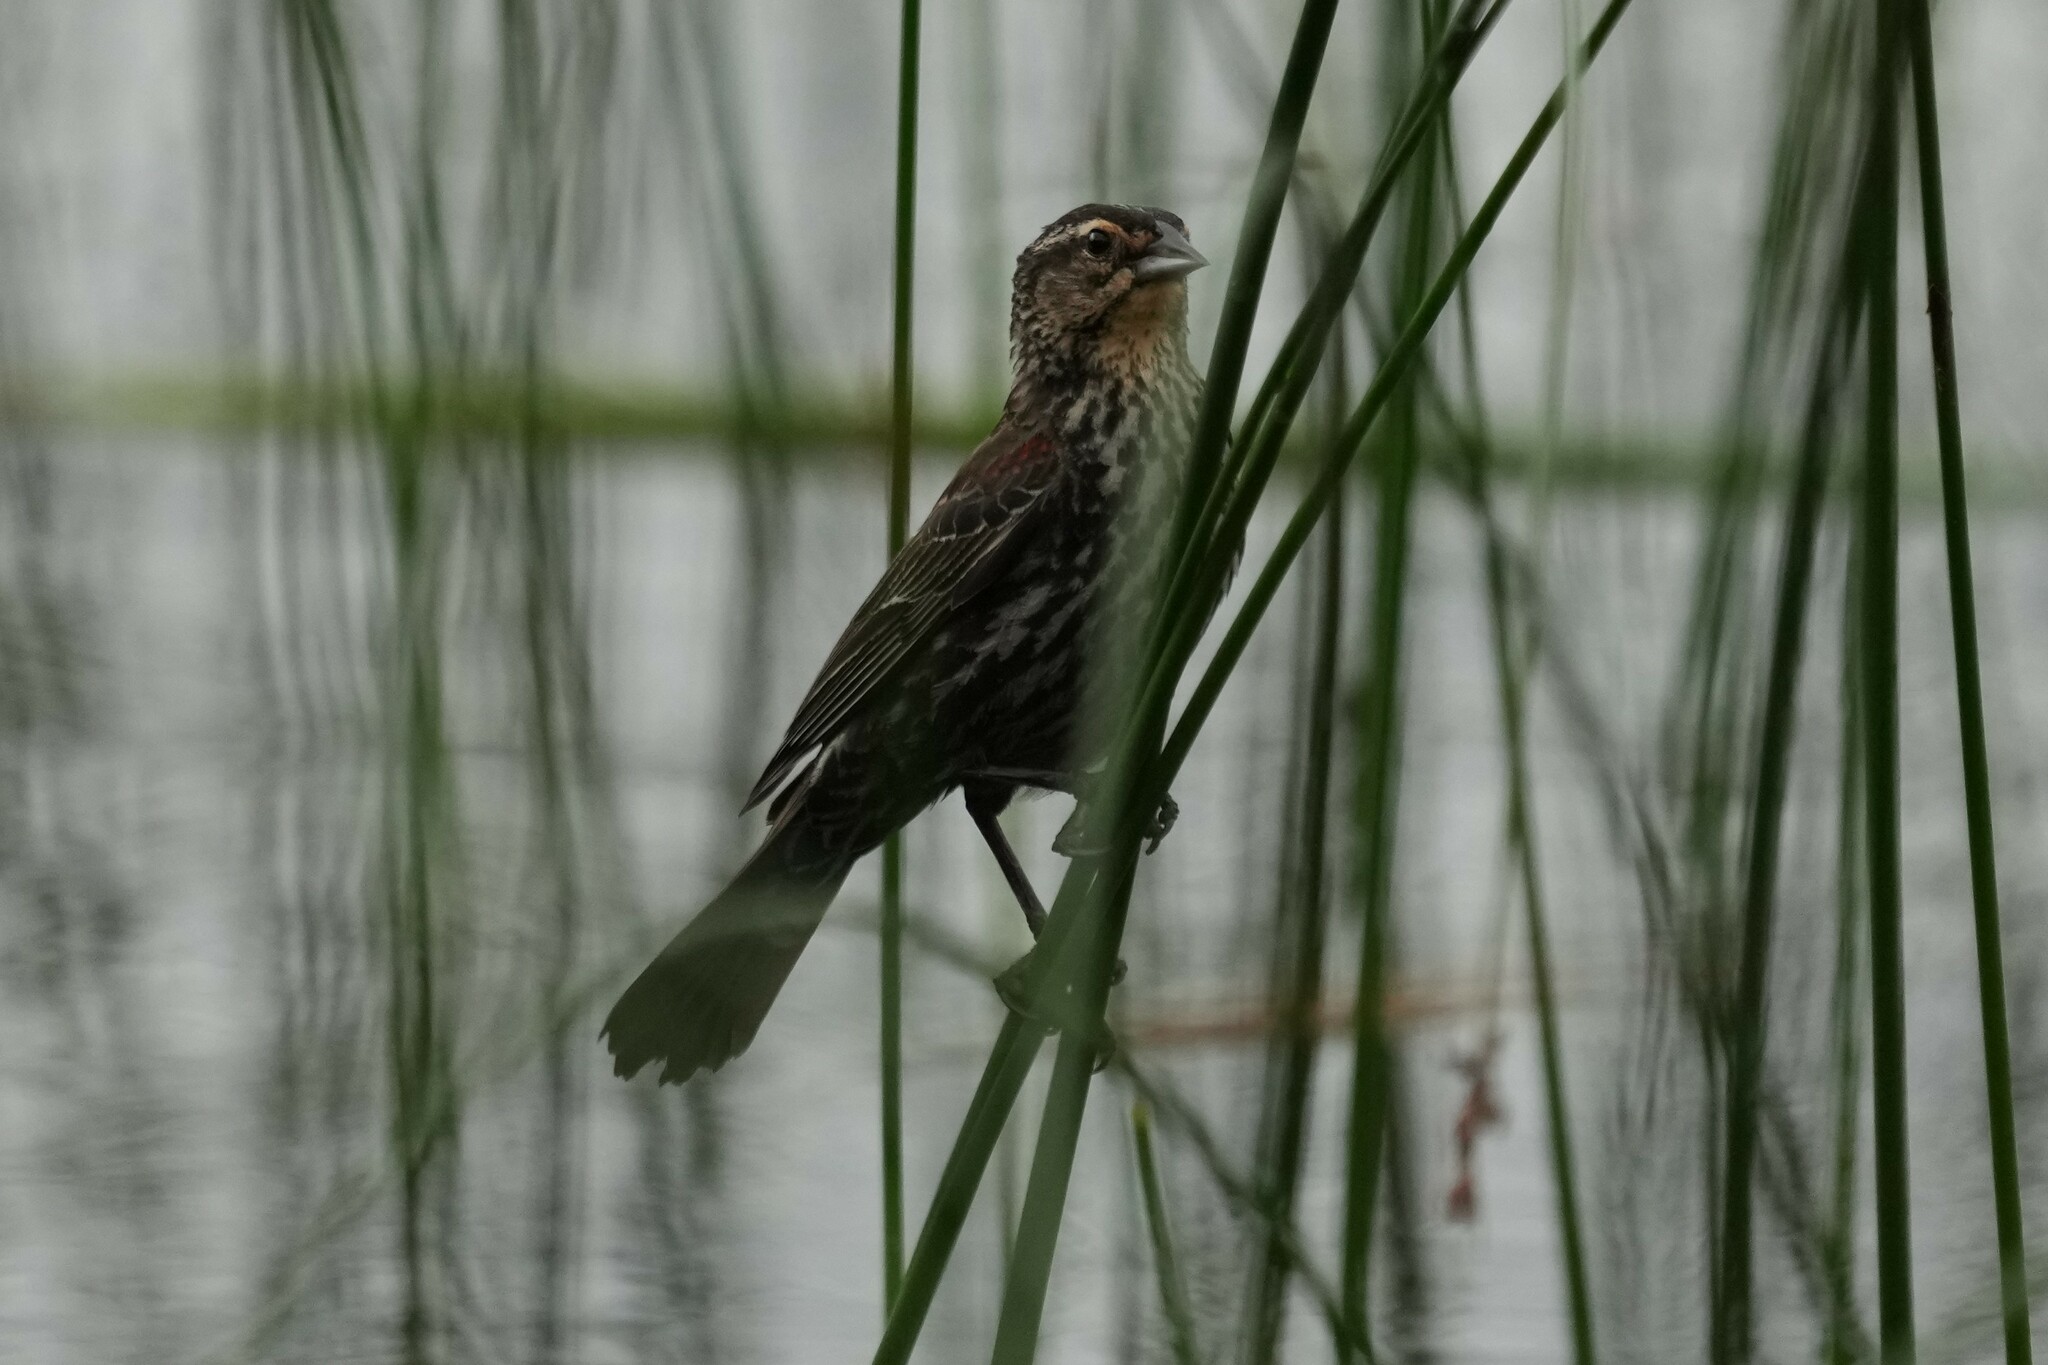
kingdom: Animalia
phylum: Chordata
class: Aves
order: Passeriformes
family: Icteridae
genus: Agelaius
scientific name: Agelaius phoeniceus
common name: Red-winged blackbird
